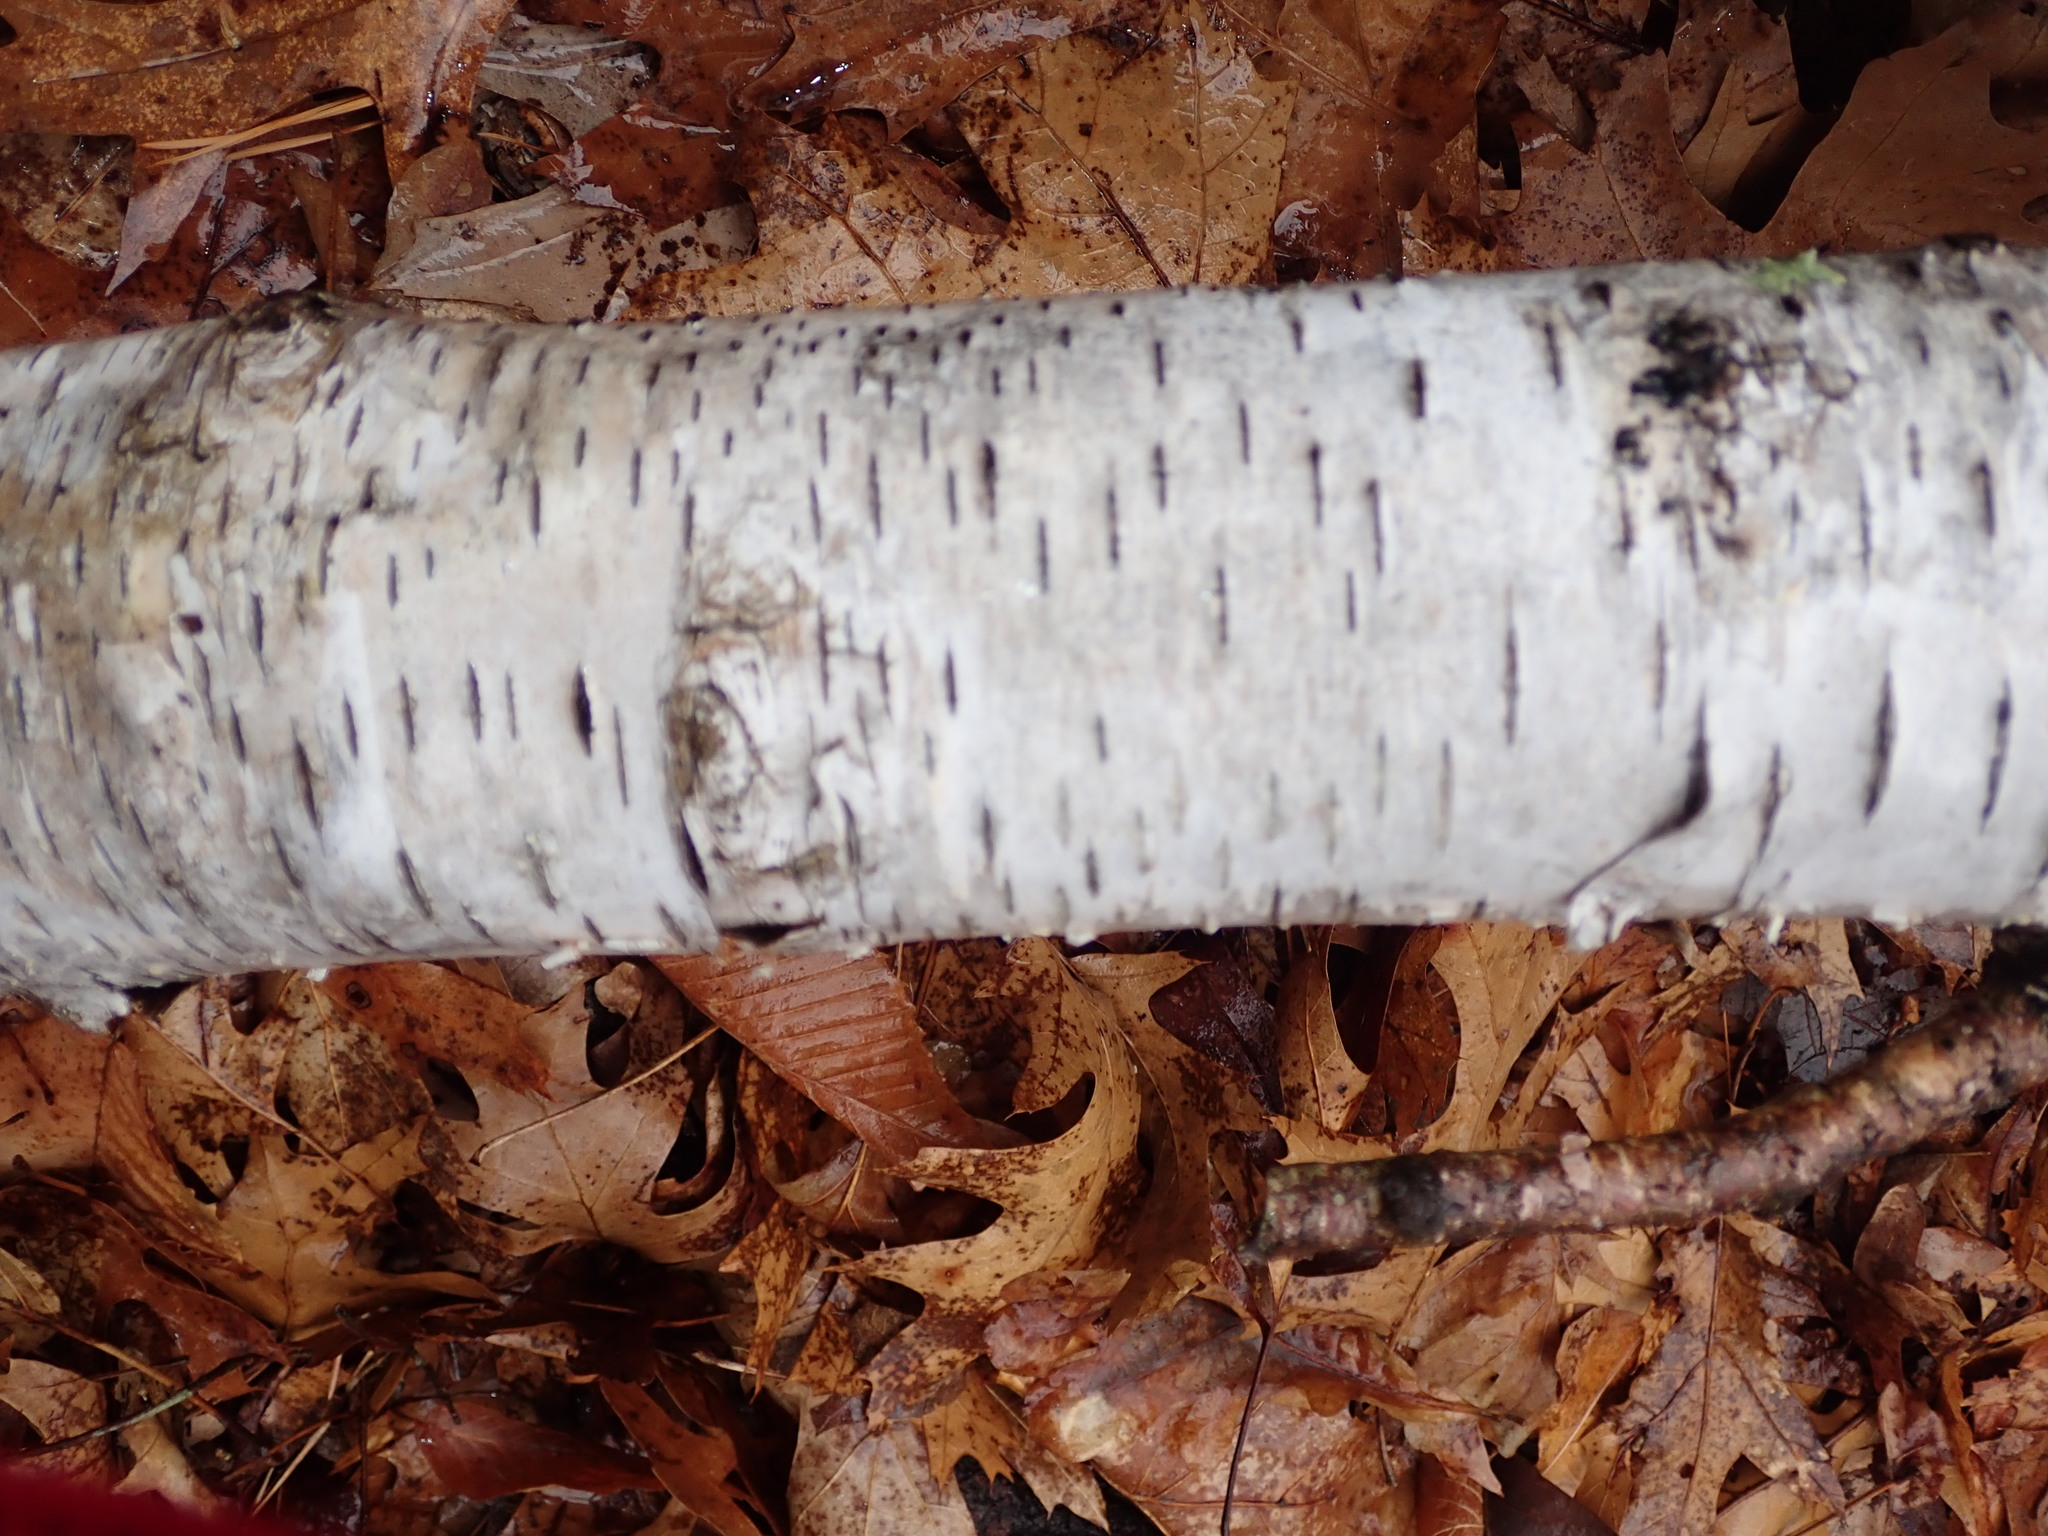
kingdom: Plantae
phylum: Tracheophyta
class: Magnoliopsida
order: Fagales
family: Betulaceae
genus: Betula
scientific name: Betula papyrifera
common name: Paper birch
